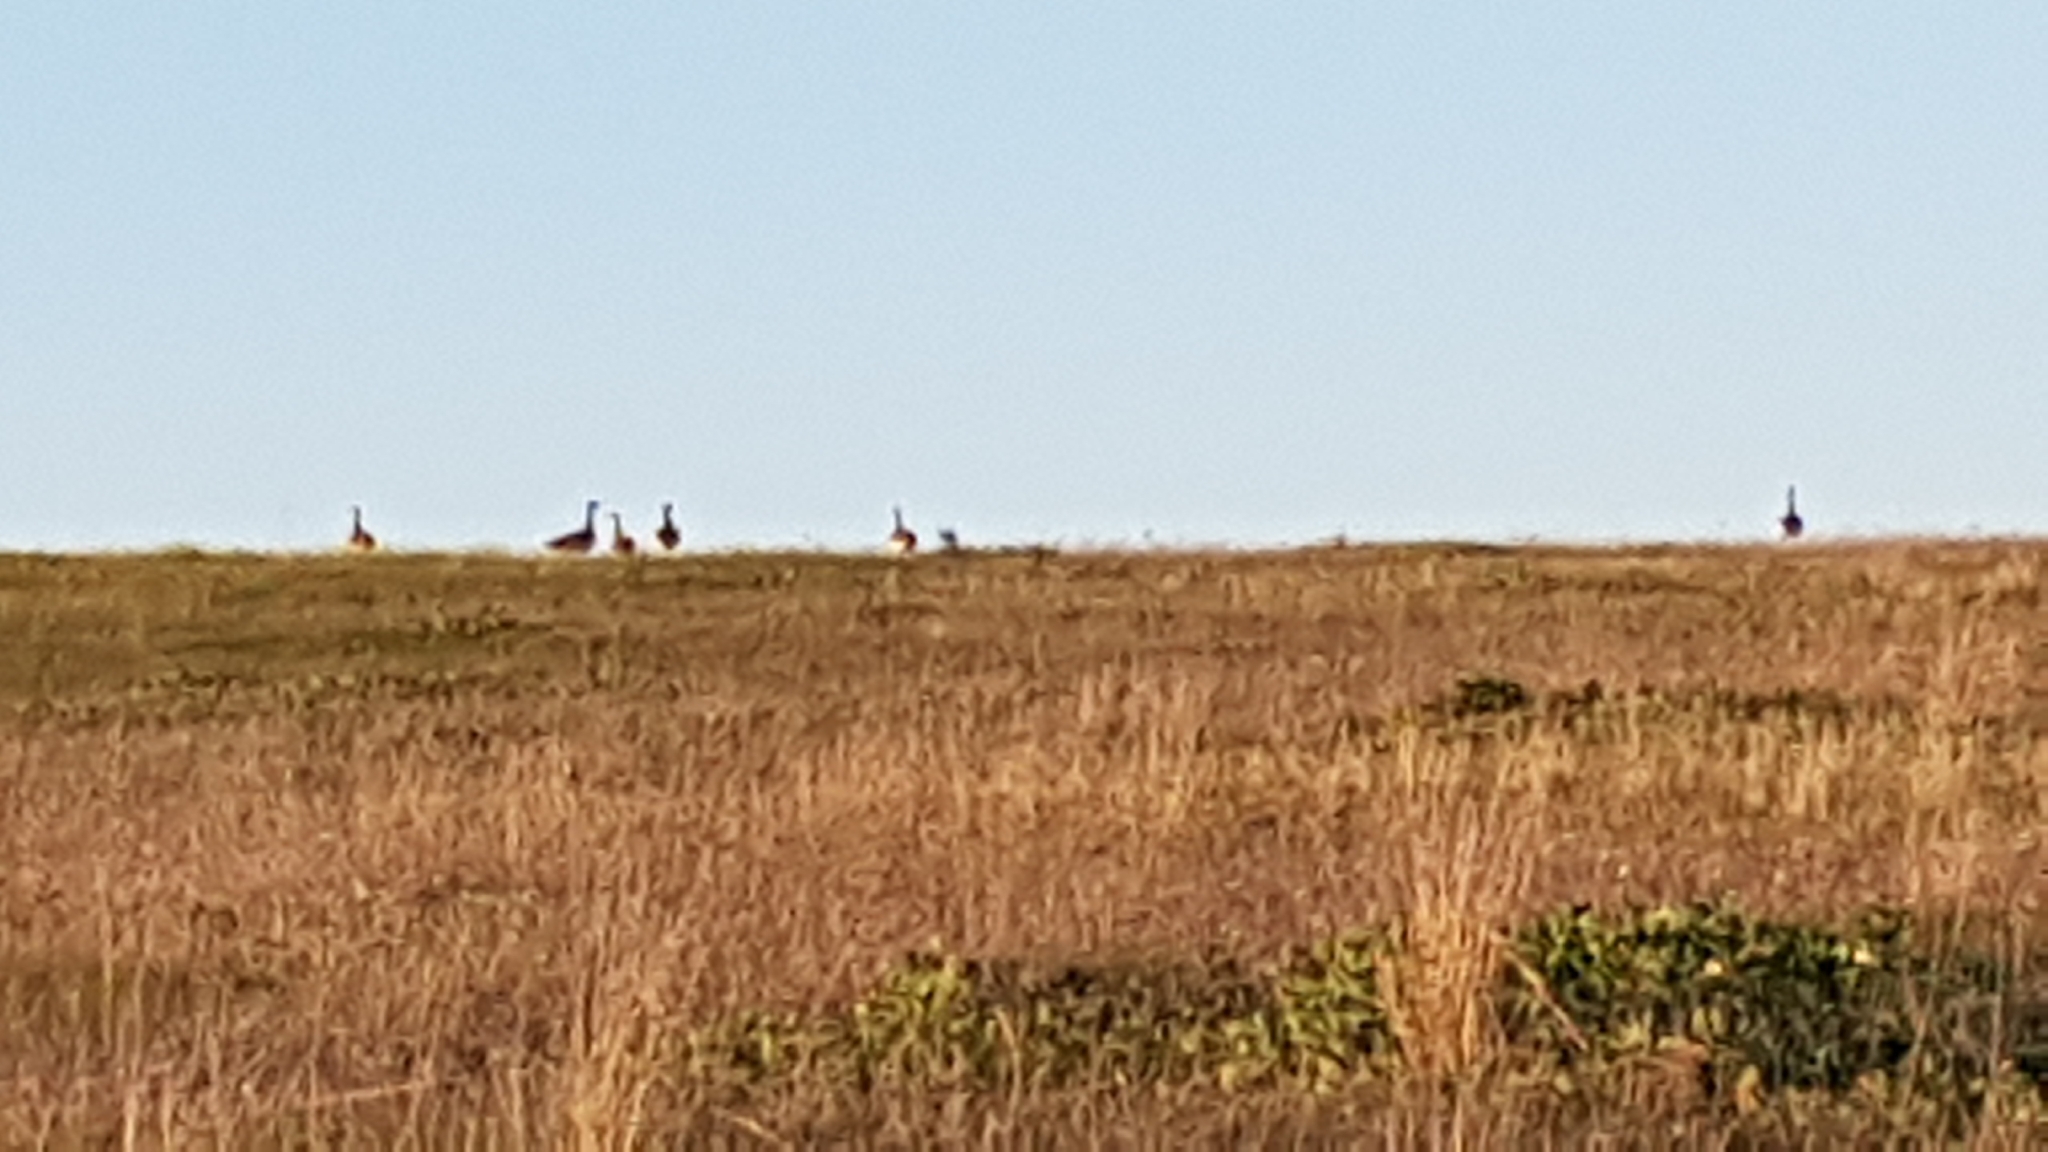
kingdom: Animalia
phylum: Chordata
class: Aves
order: Otidiformes
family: Otididae
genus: Otis
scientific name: Otis tarda
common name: Great bustard
